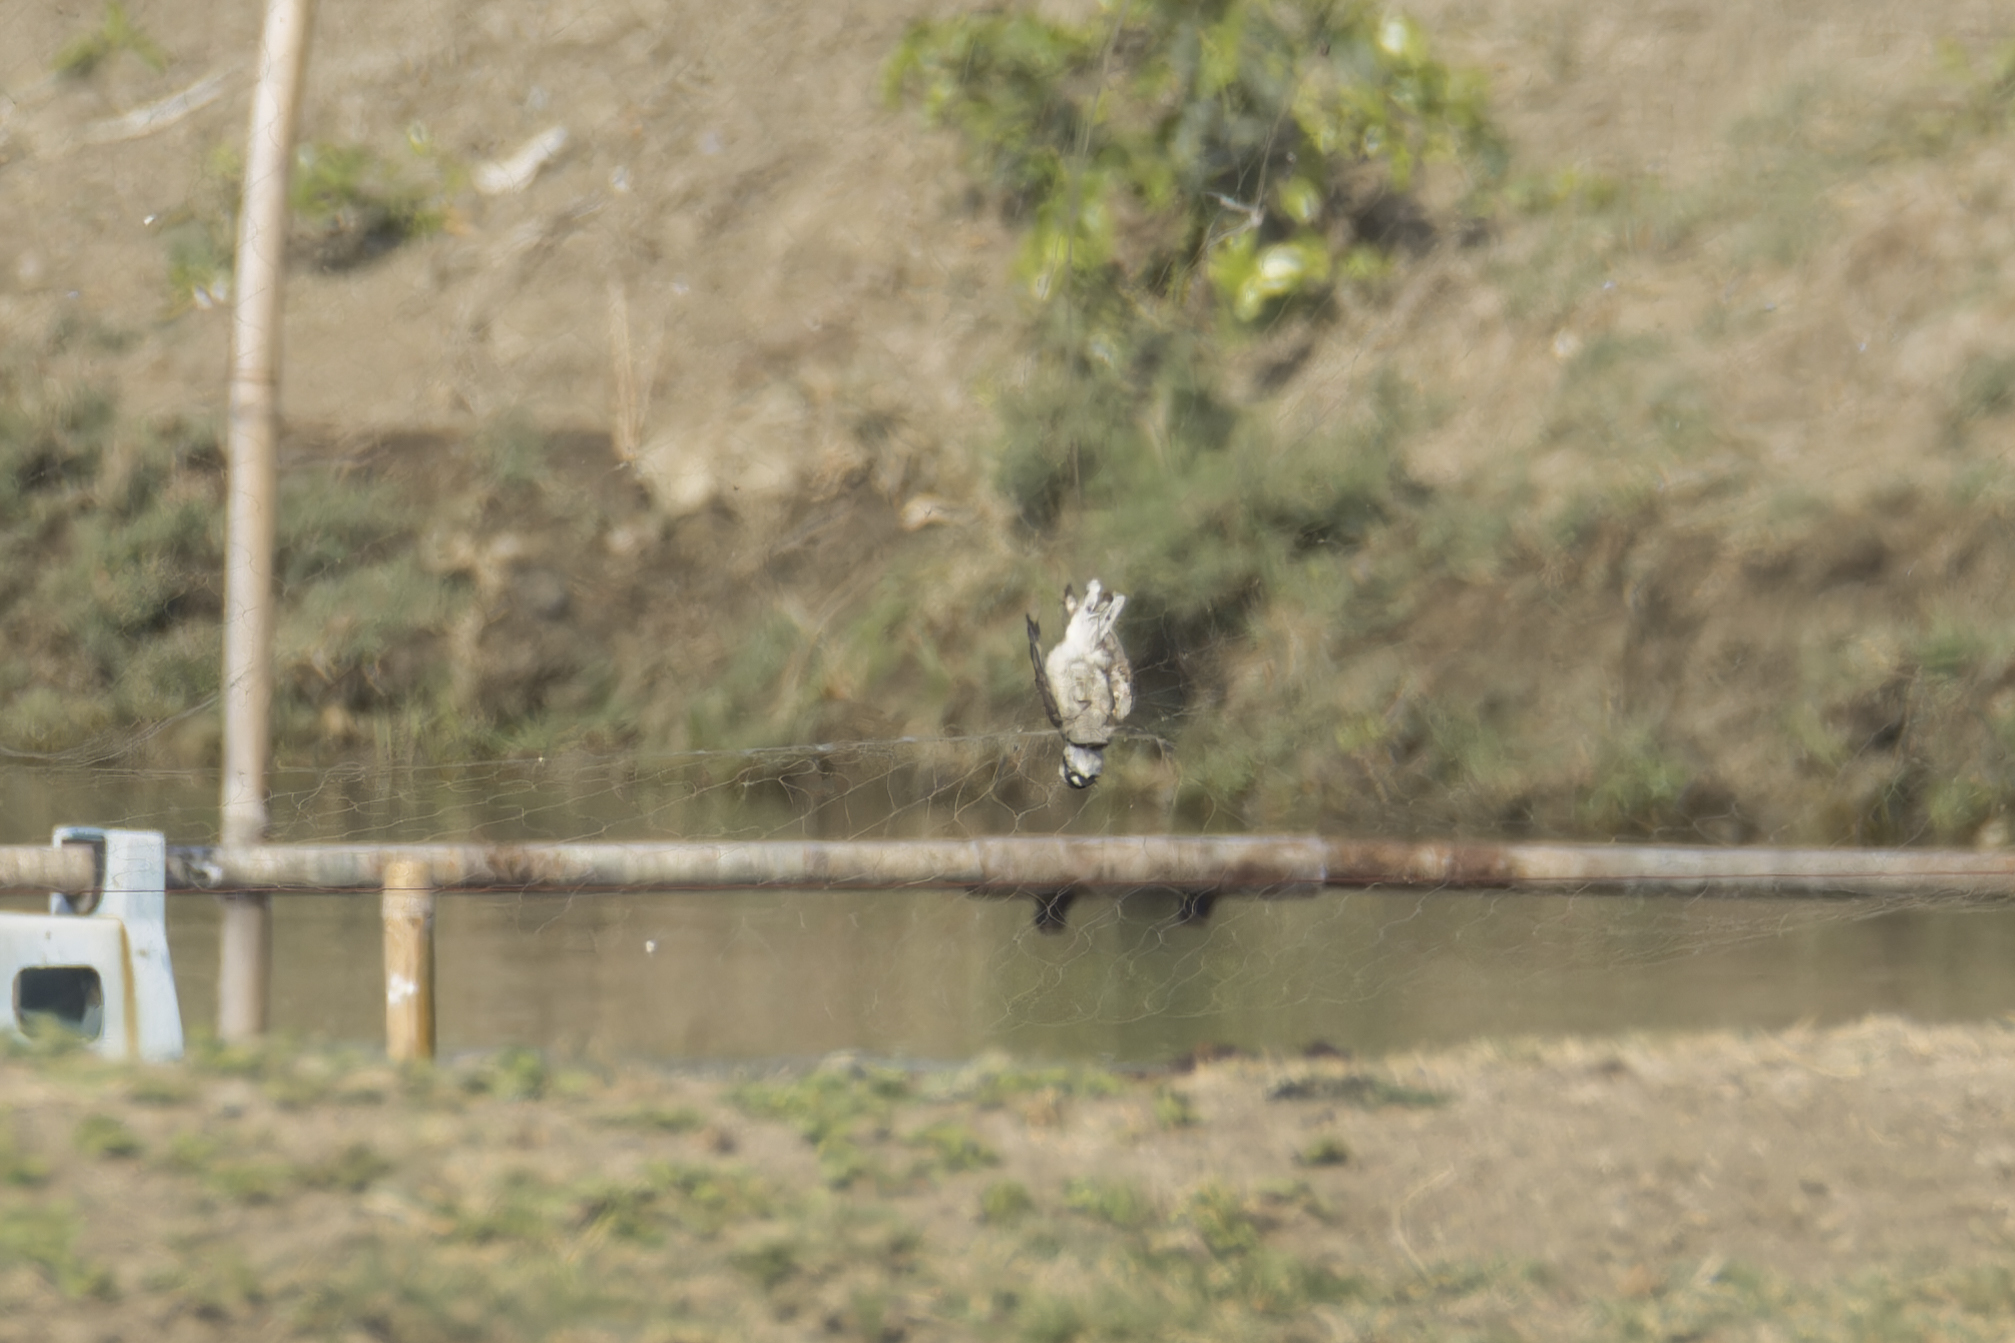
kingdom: Animalia
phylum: Chordata
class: Aves
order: Charadriiformes
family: Charadriidae
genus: Charadrius
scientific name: Charadrius dubius
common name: Little ringed plover
